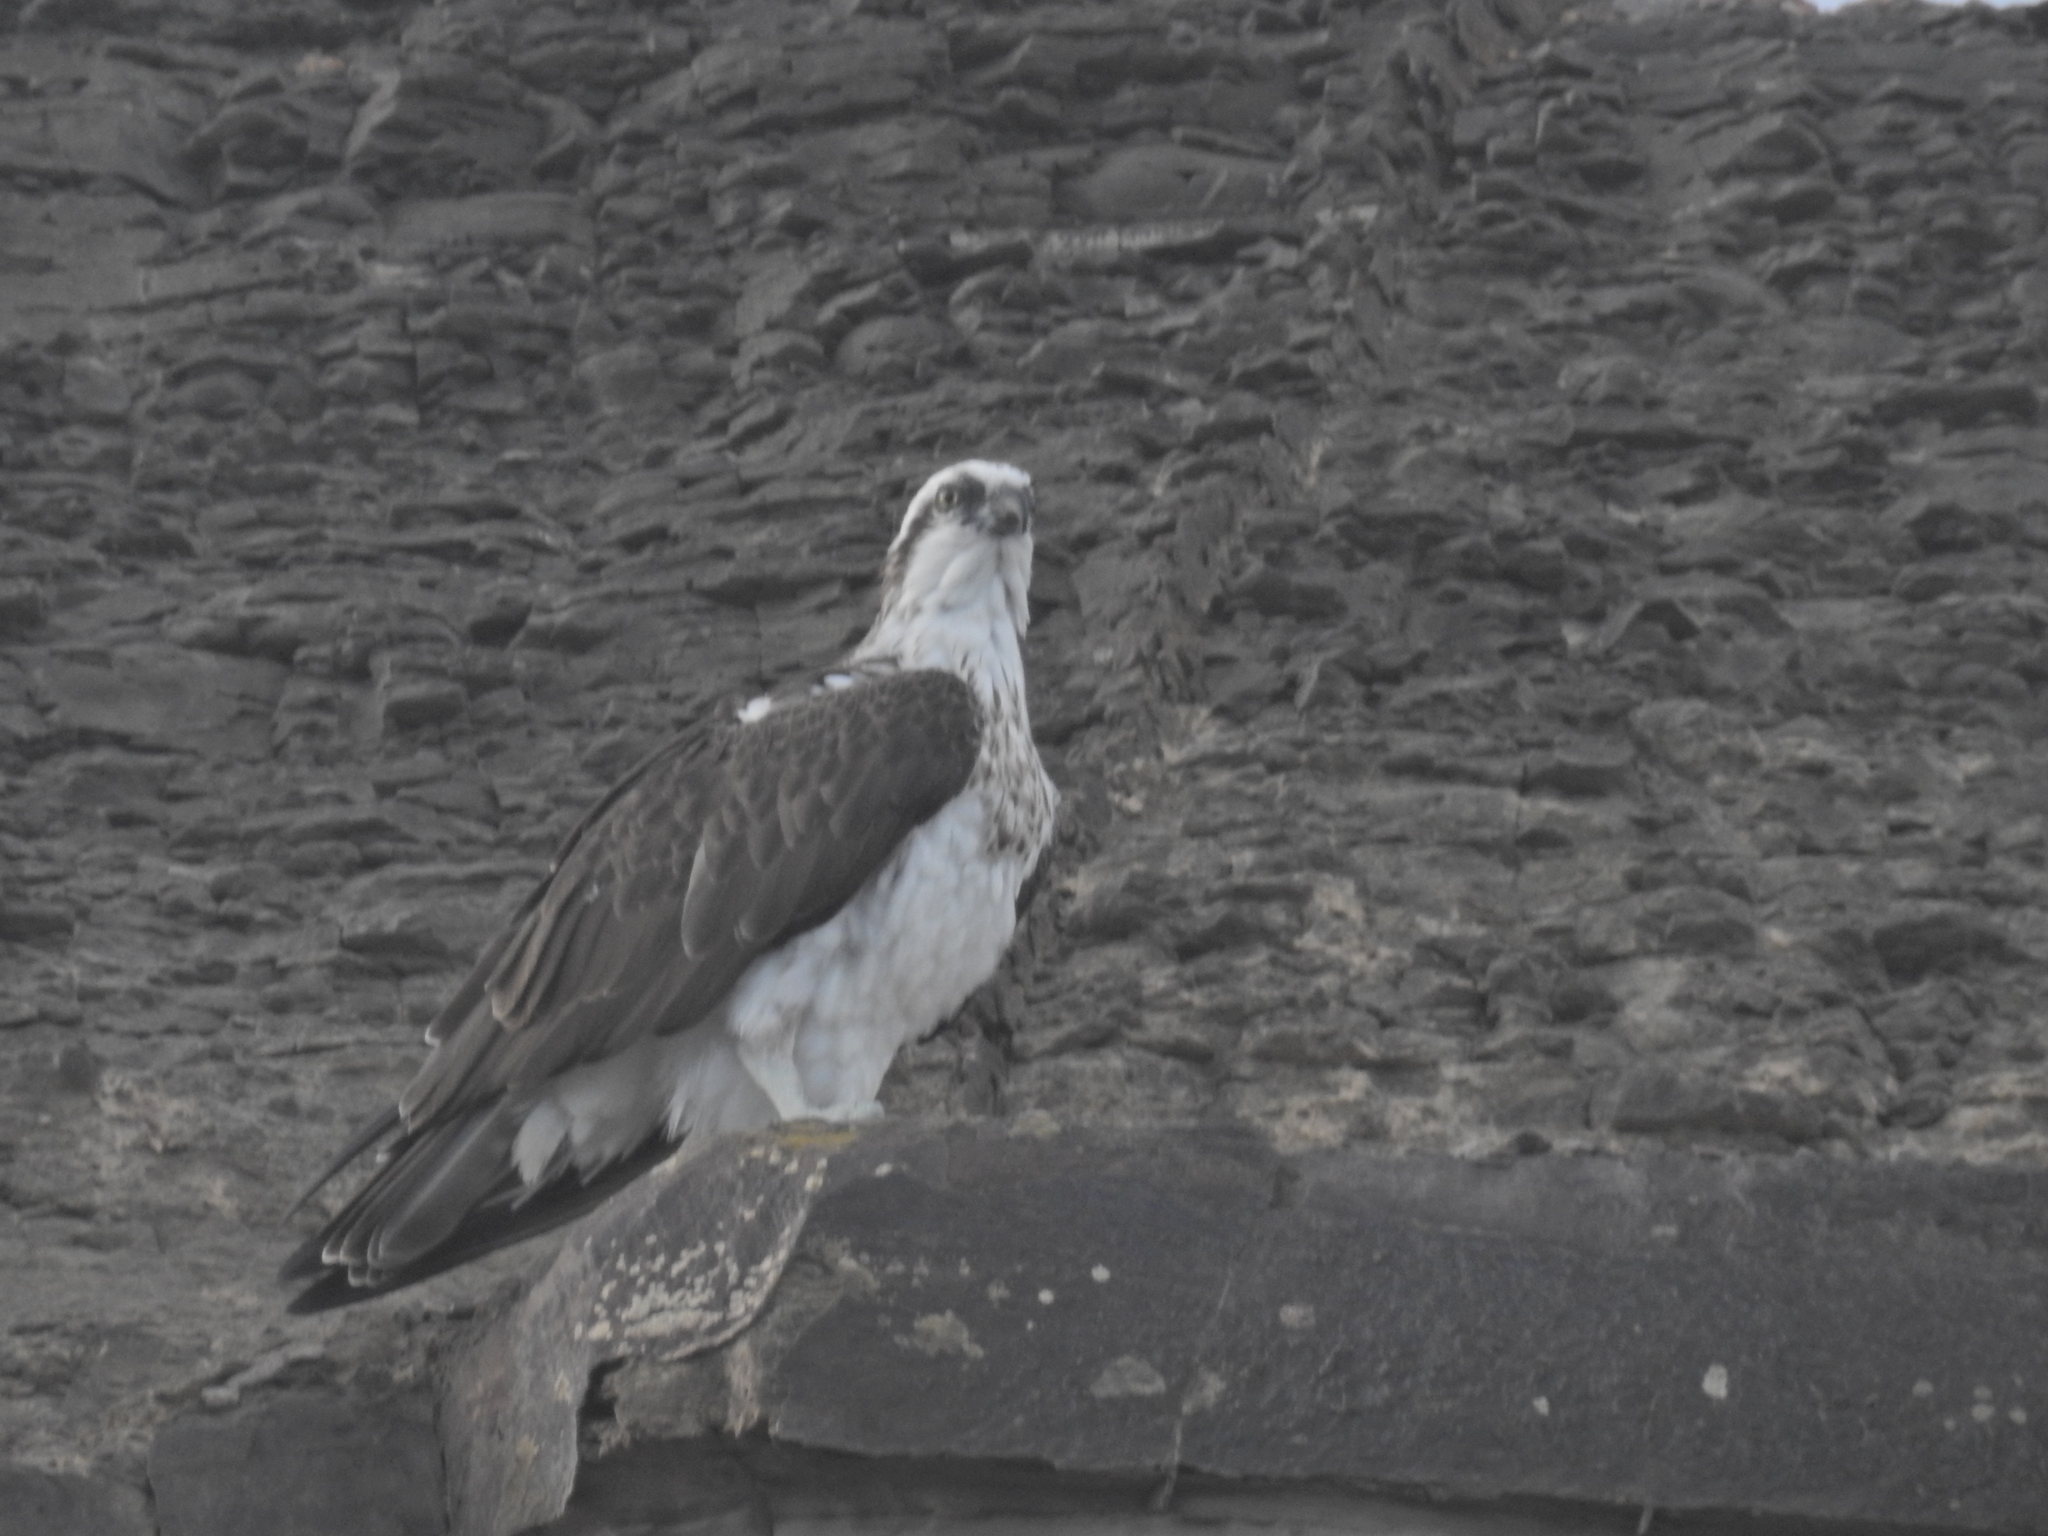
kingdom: Animalia
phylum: Chordata
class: Aves
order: Accipitriformes
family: Pandionidae
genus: Pandion
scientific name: Pandion haliaetus
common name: Osprey
